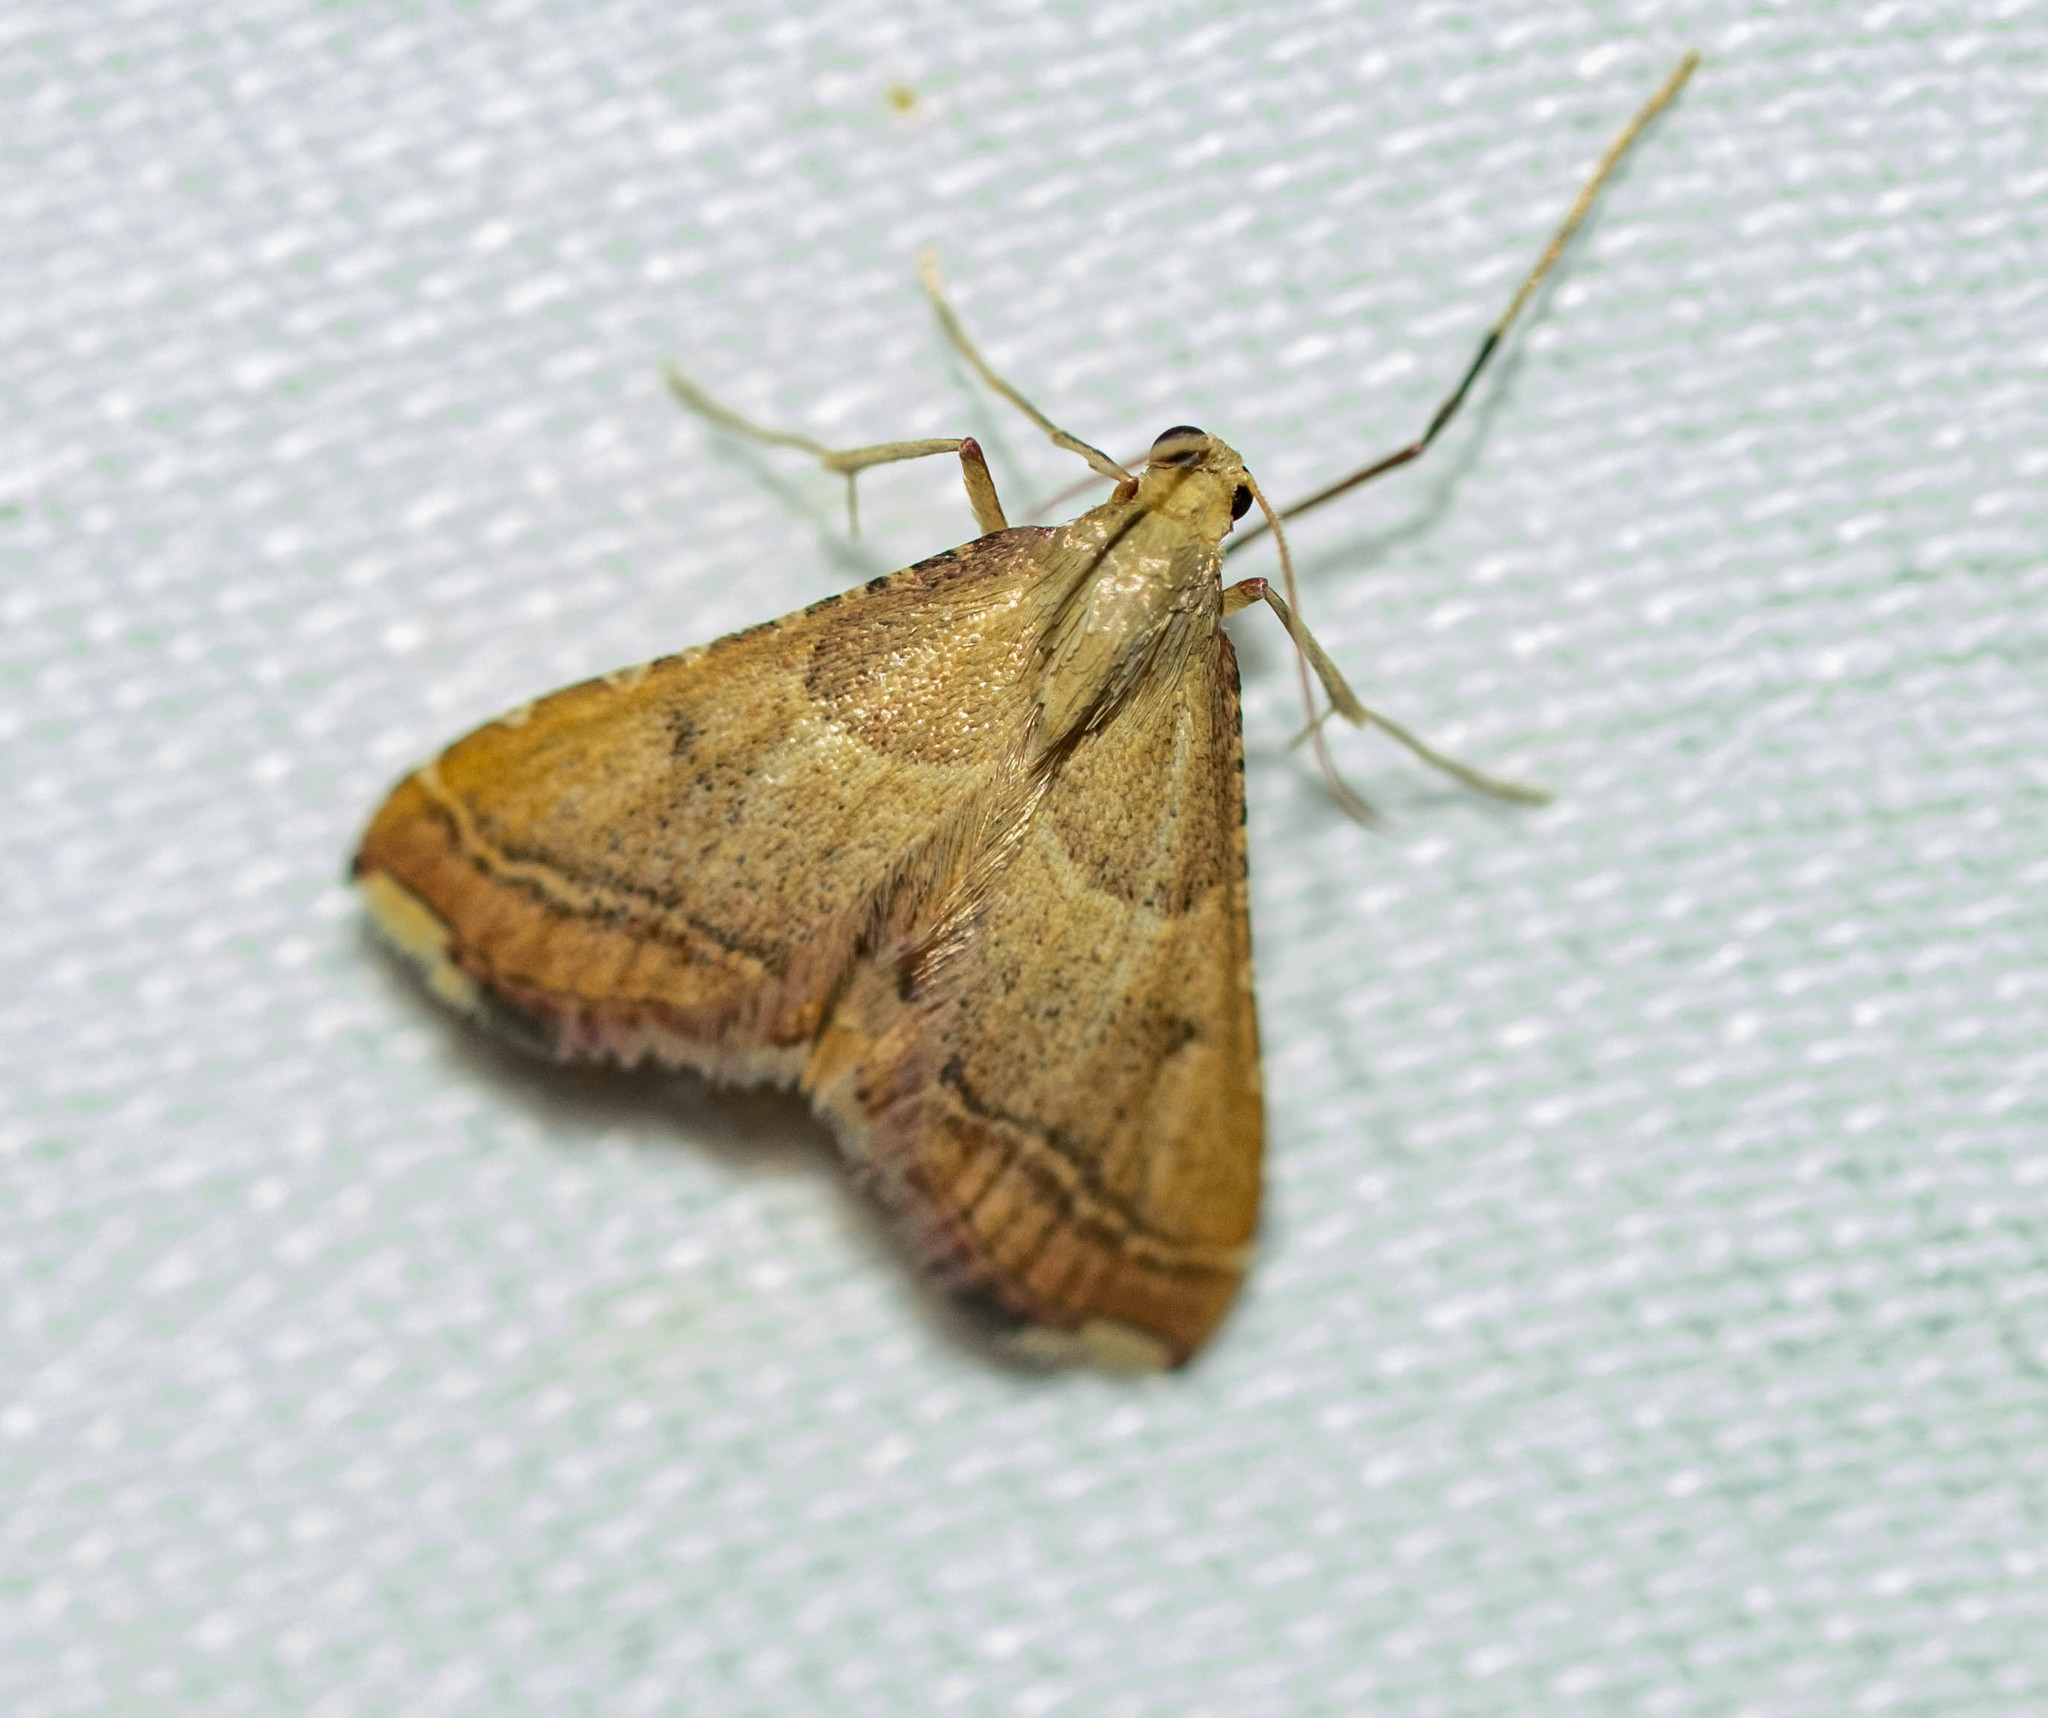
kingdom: Animalia
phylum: Arthropoda
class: Insecta
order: Lepidoptera
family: Pyralidae
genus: Endotricha
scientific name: Endotricha flammealis
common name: Rosy tabby
